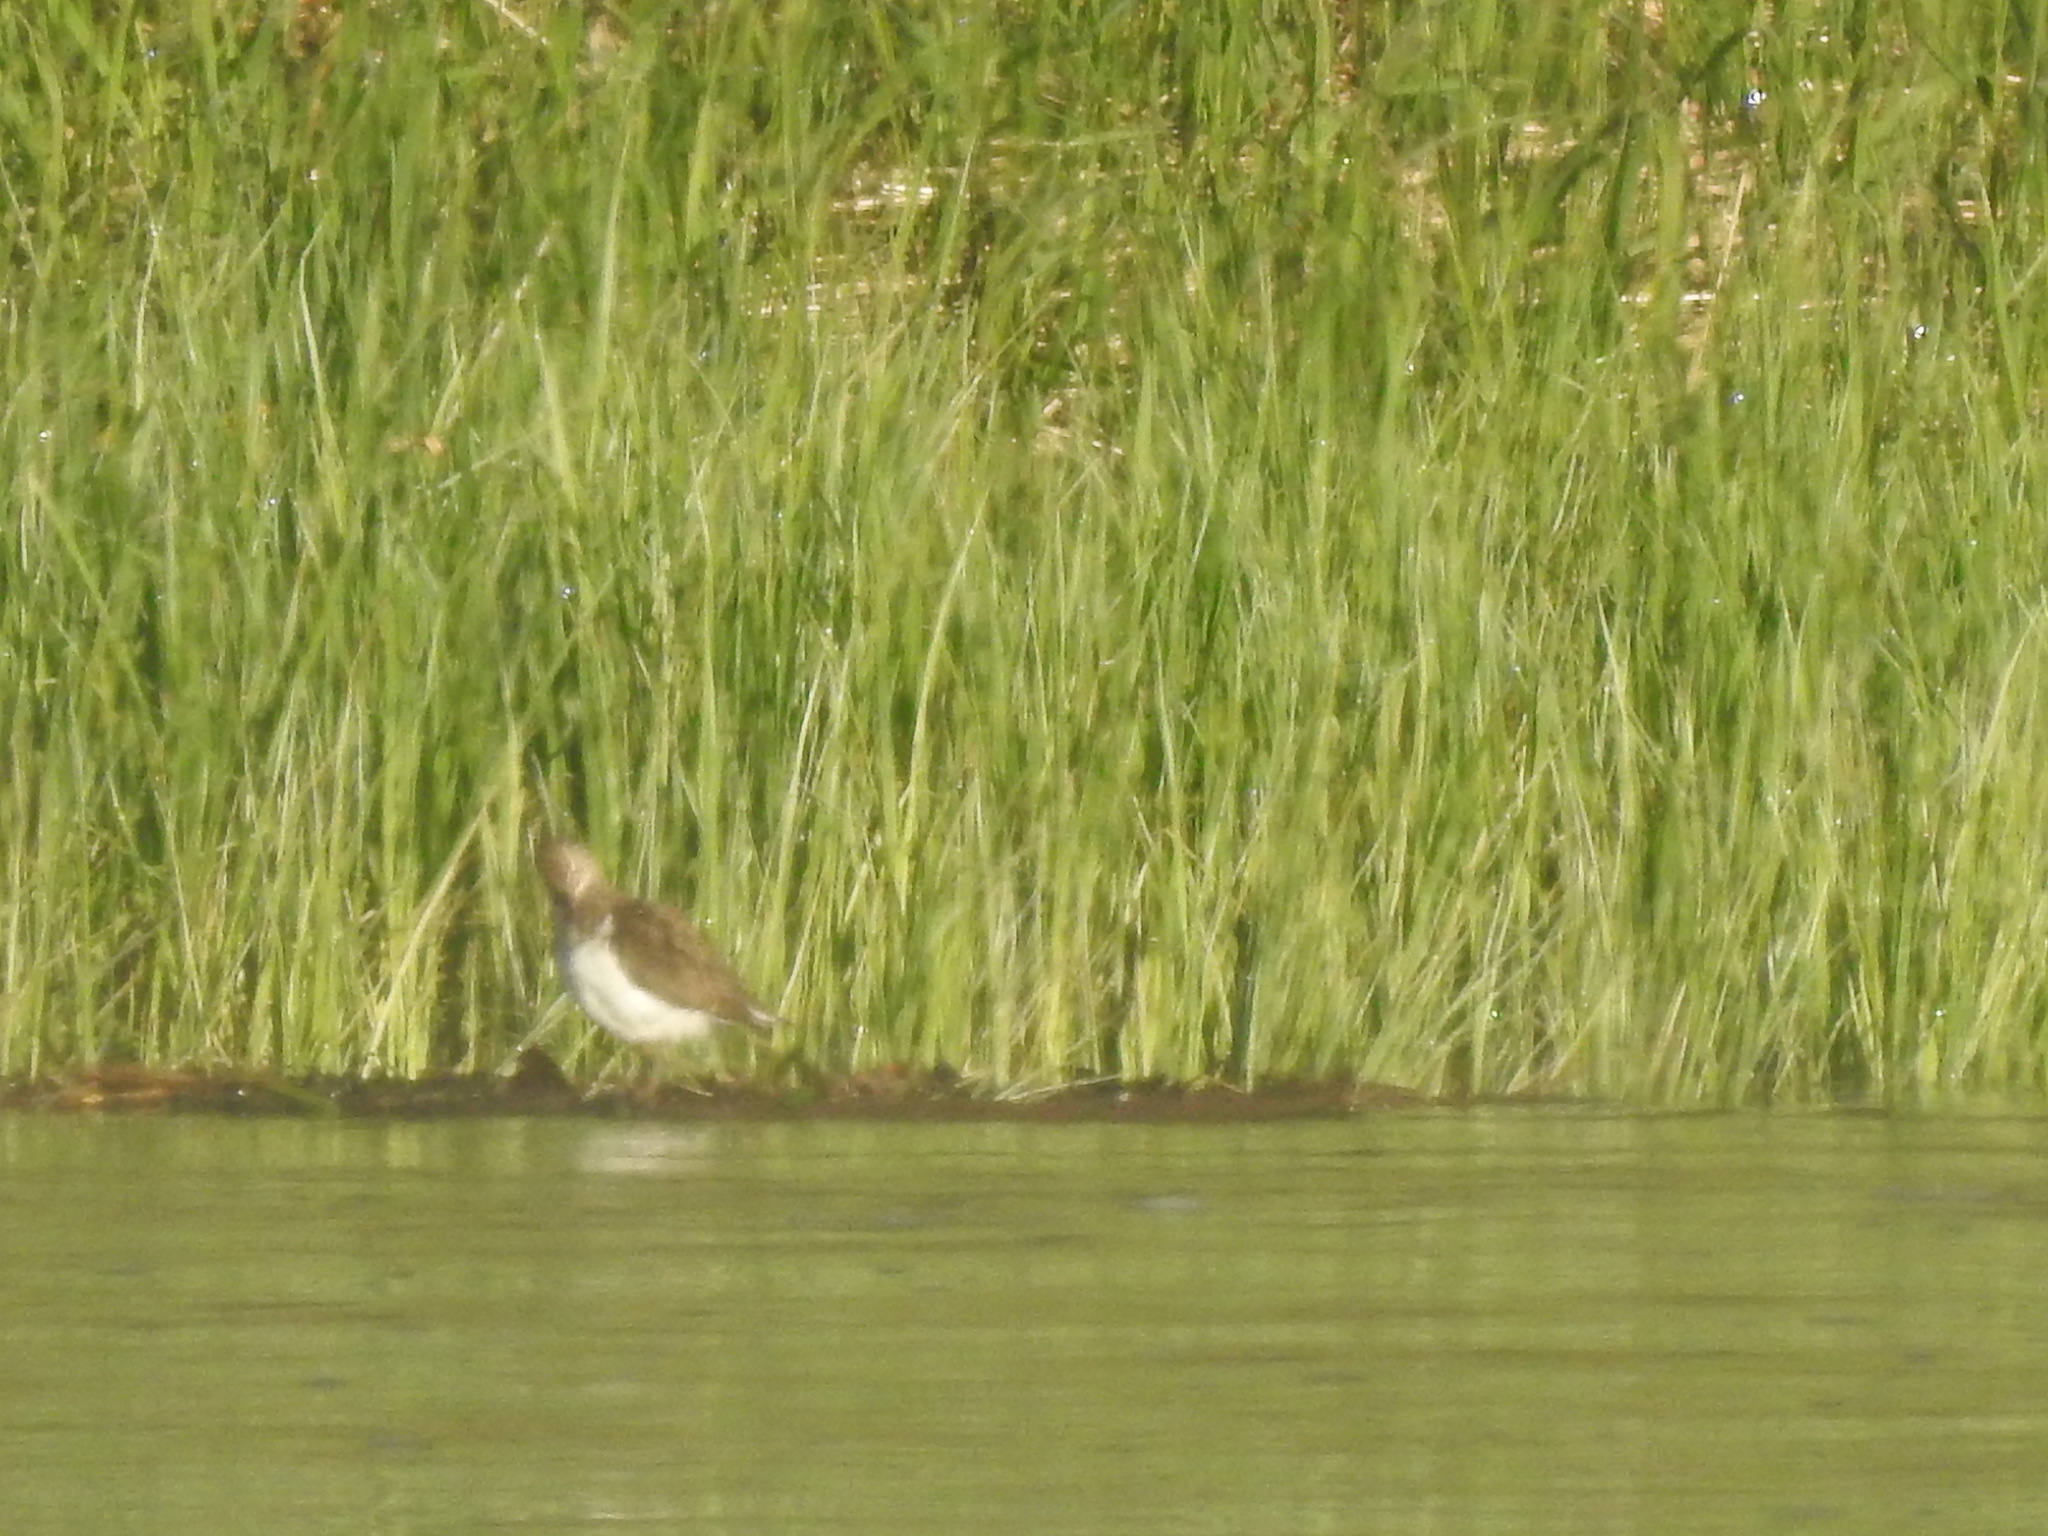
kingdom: Animalia
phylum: Chordata
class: Aves
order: Charadriiformes
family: Scolopacidae
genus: Actitis
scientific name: Actitis hypoleucos
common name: Common sandpiper
